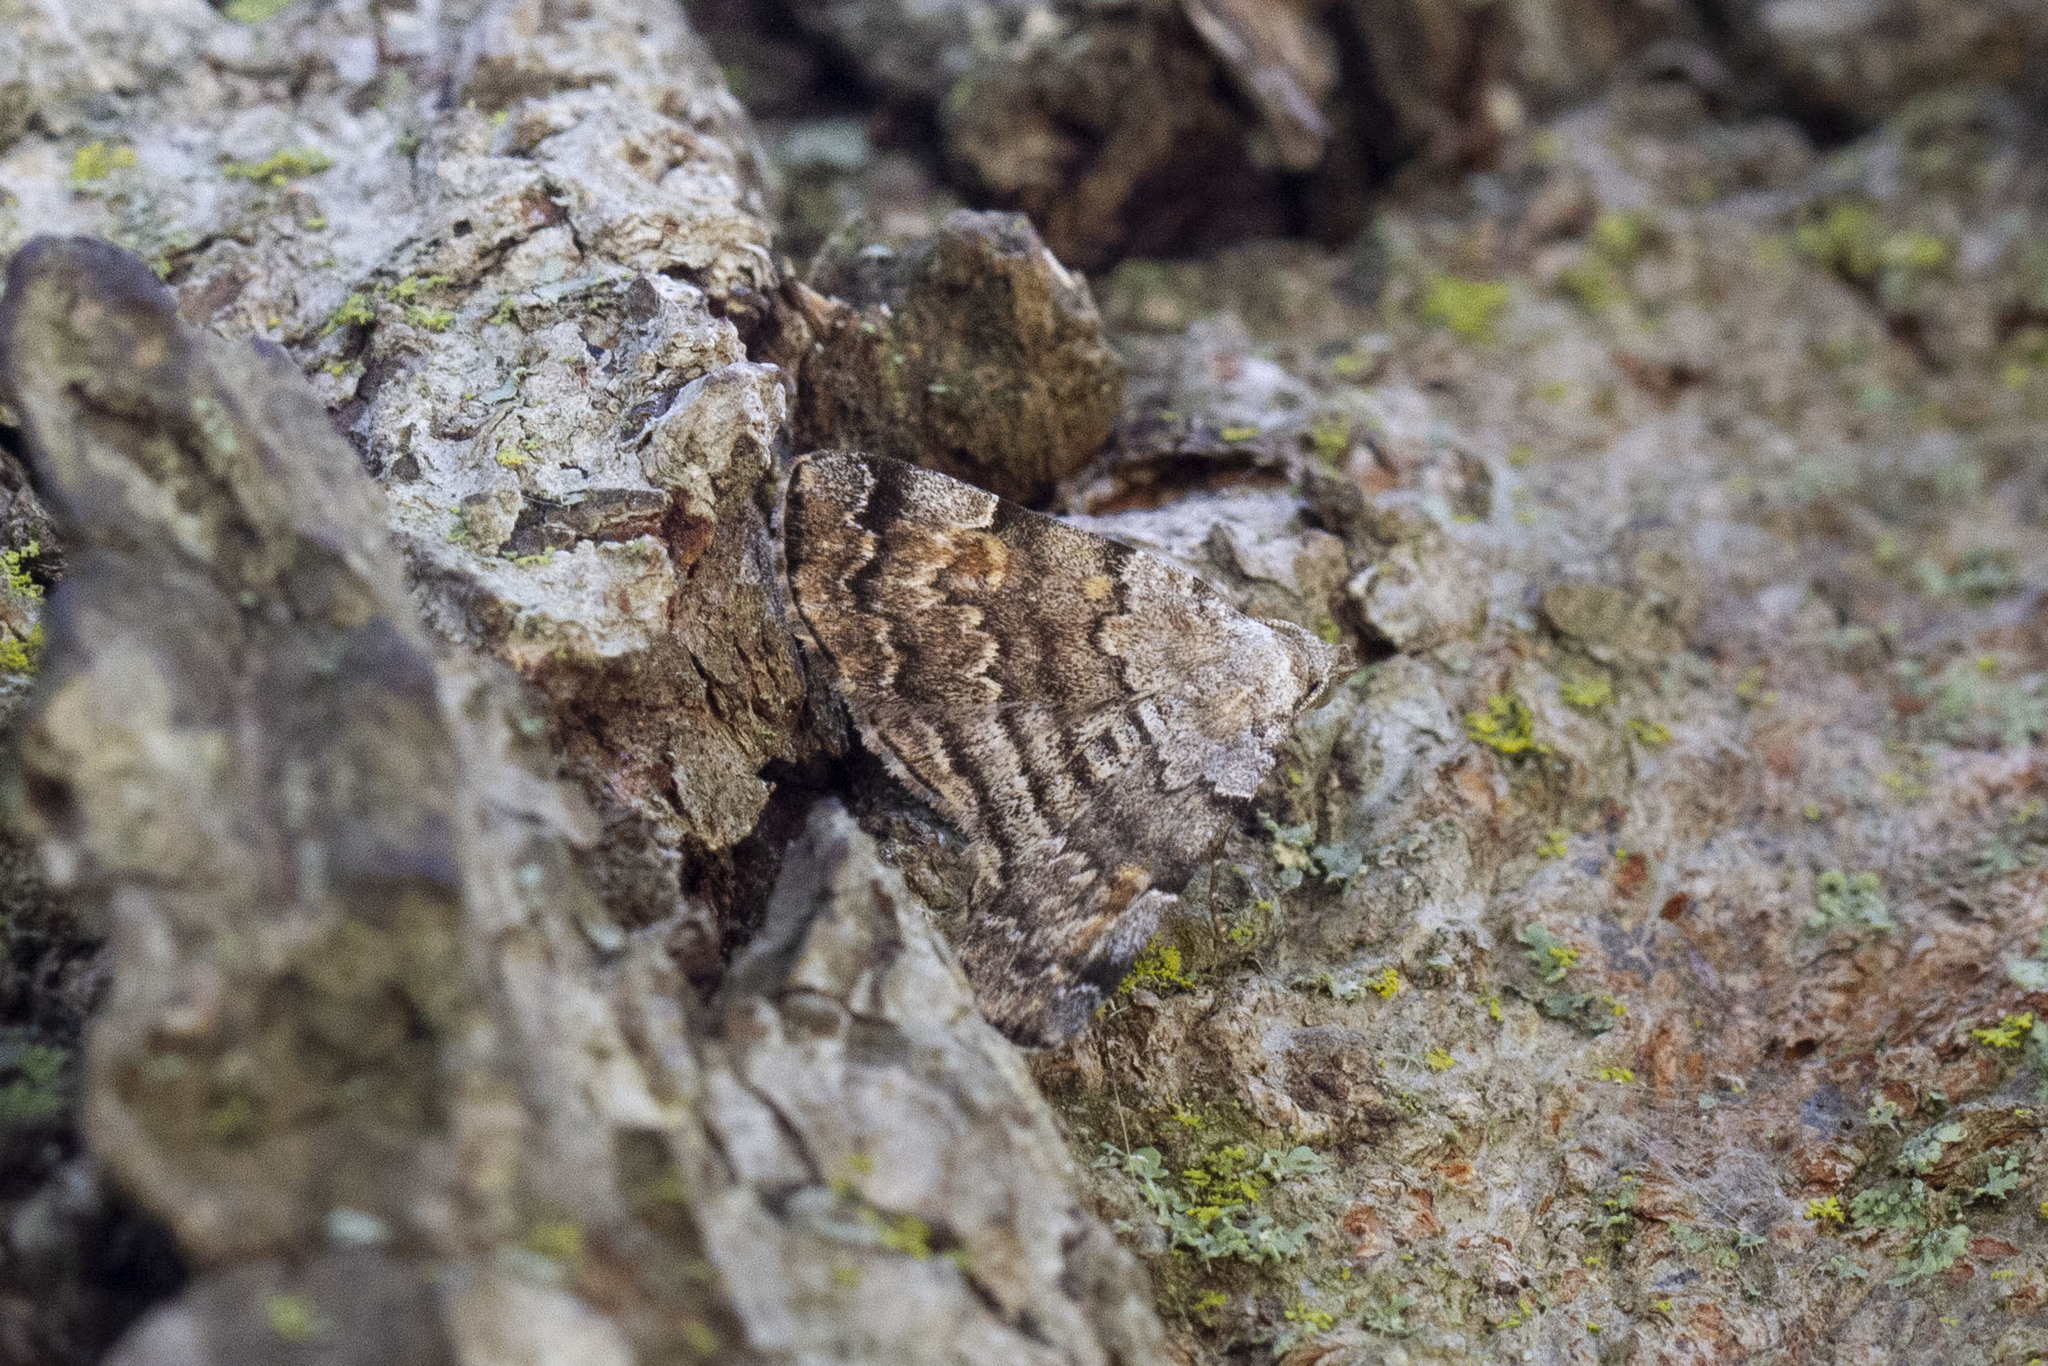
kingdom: Animalia
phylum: Arthropoda
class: Insecta
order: Lepidoptera
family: Erebidae
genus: Idia
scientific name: Idia americalis
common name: American idia moth
